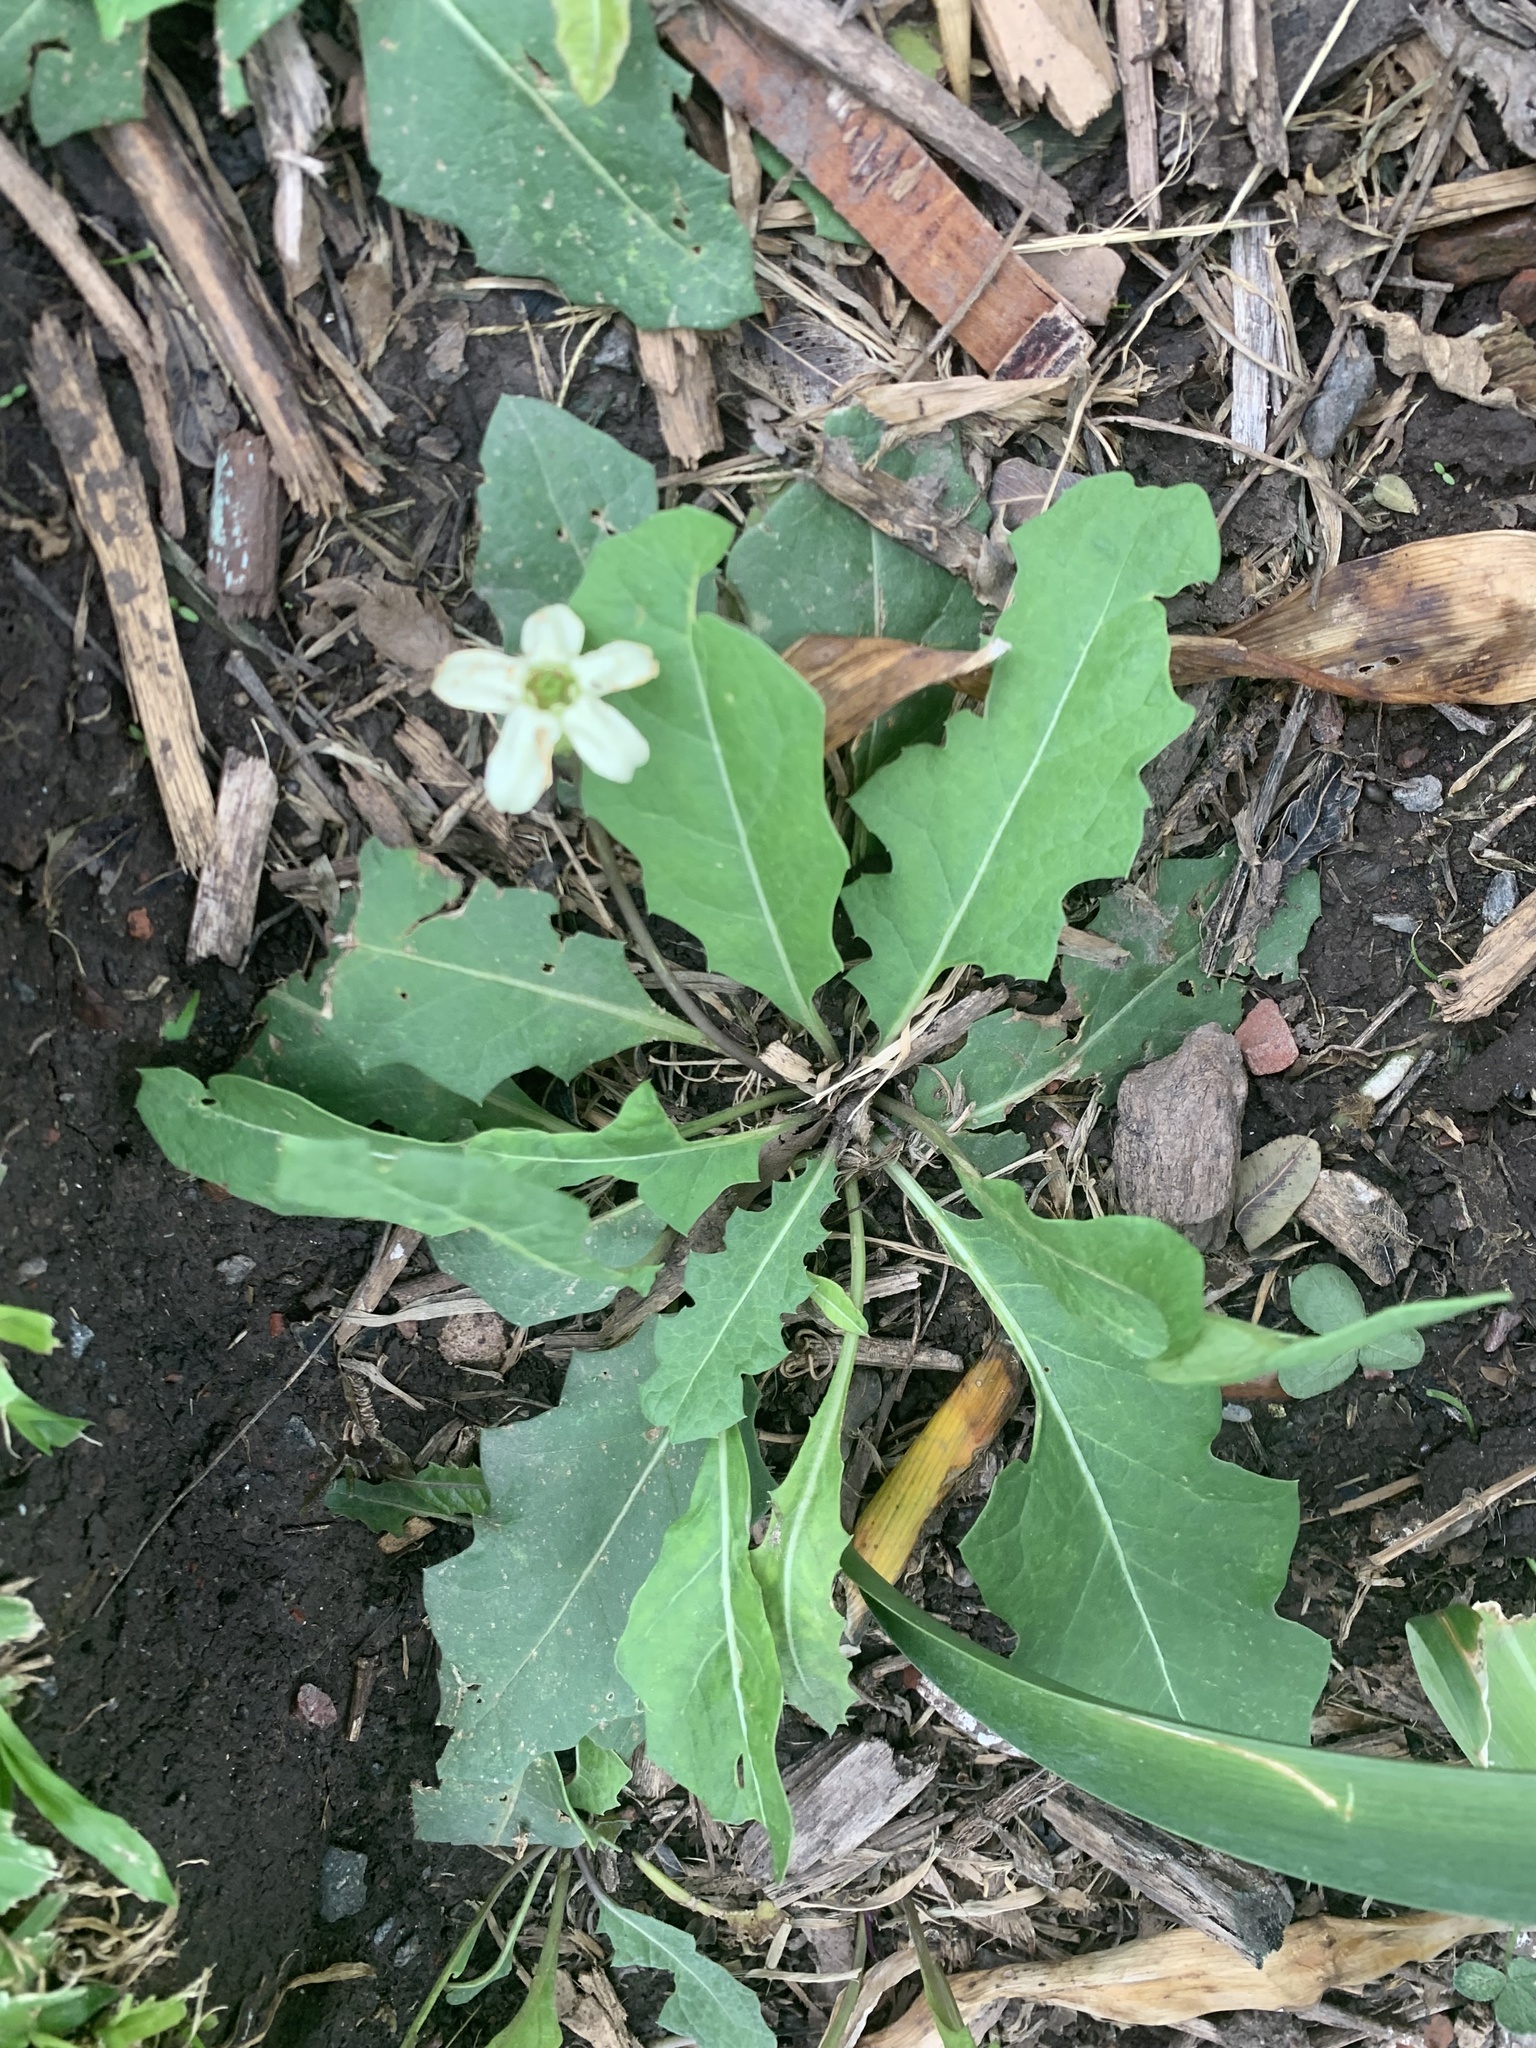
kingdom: Plantae
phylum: Tracheophyta
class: Magnoliopsida
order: Solanales
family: Solanaceae
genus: Jaborosa
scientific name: Jaborosa runcinata
